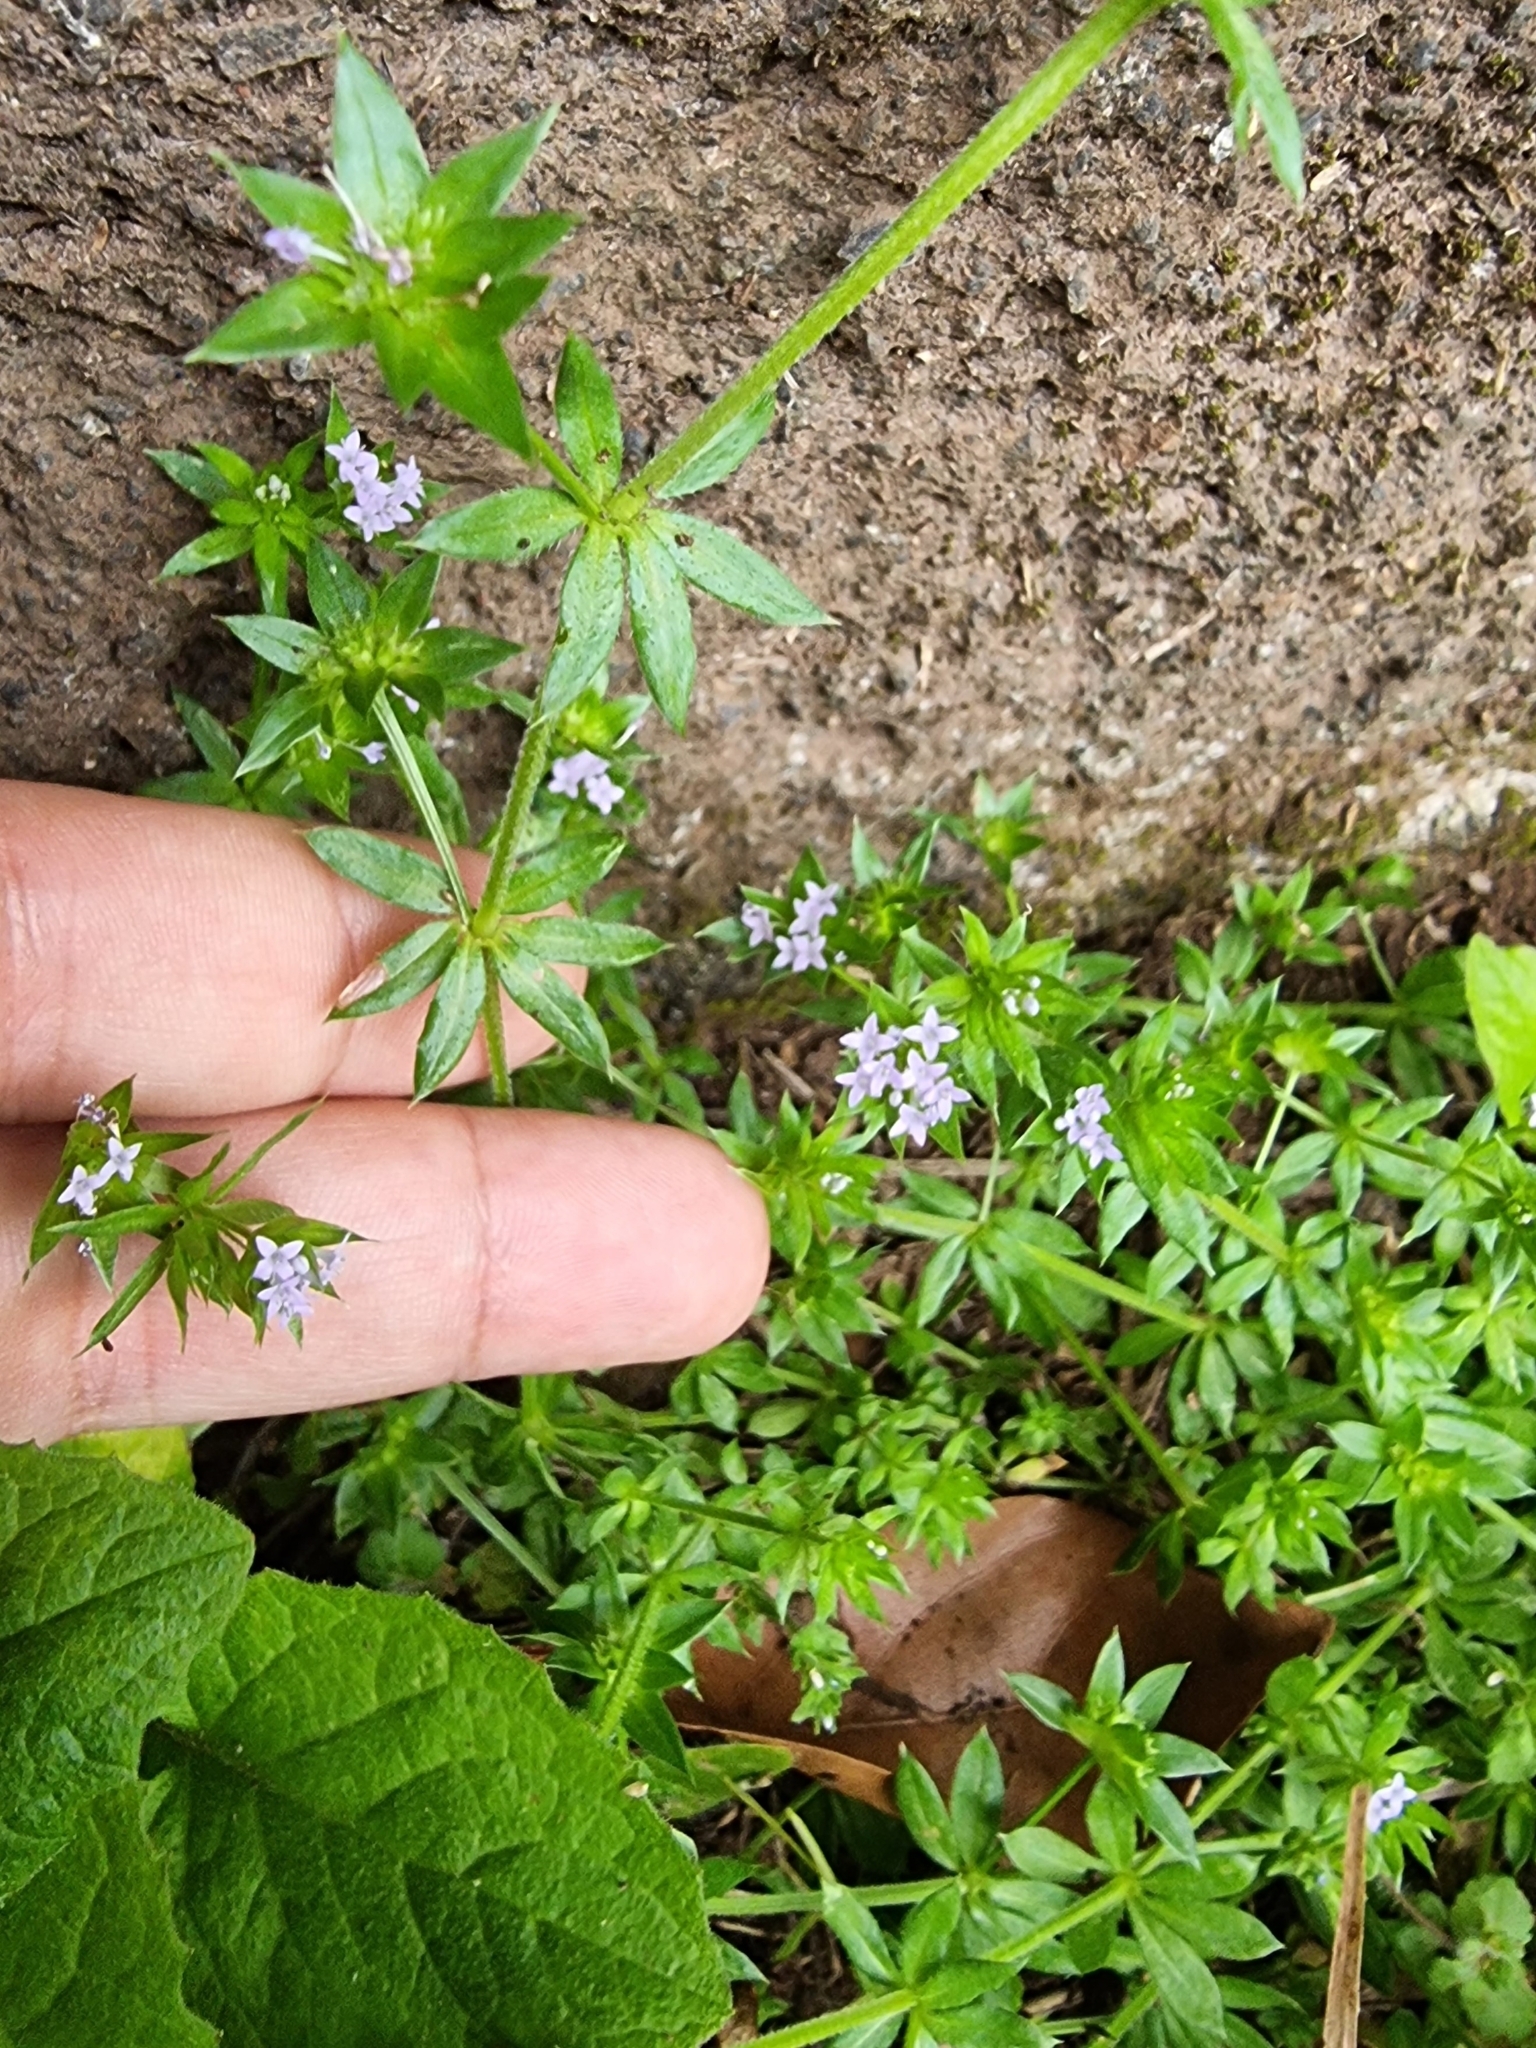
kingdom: Plantae
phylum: Tracheophyta
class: Magnoliopsida
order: Gentianales
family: Rubiaceae
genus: Sherardia
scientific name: Sherardia arvensis
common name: Field madder
